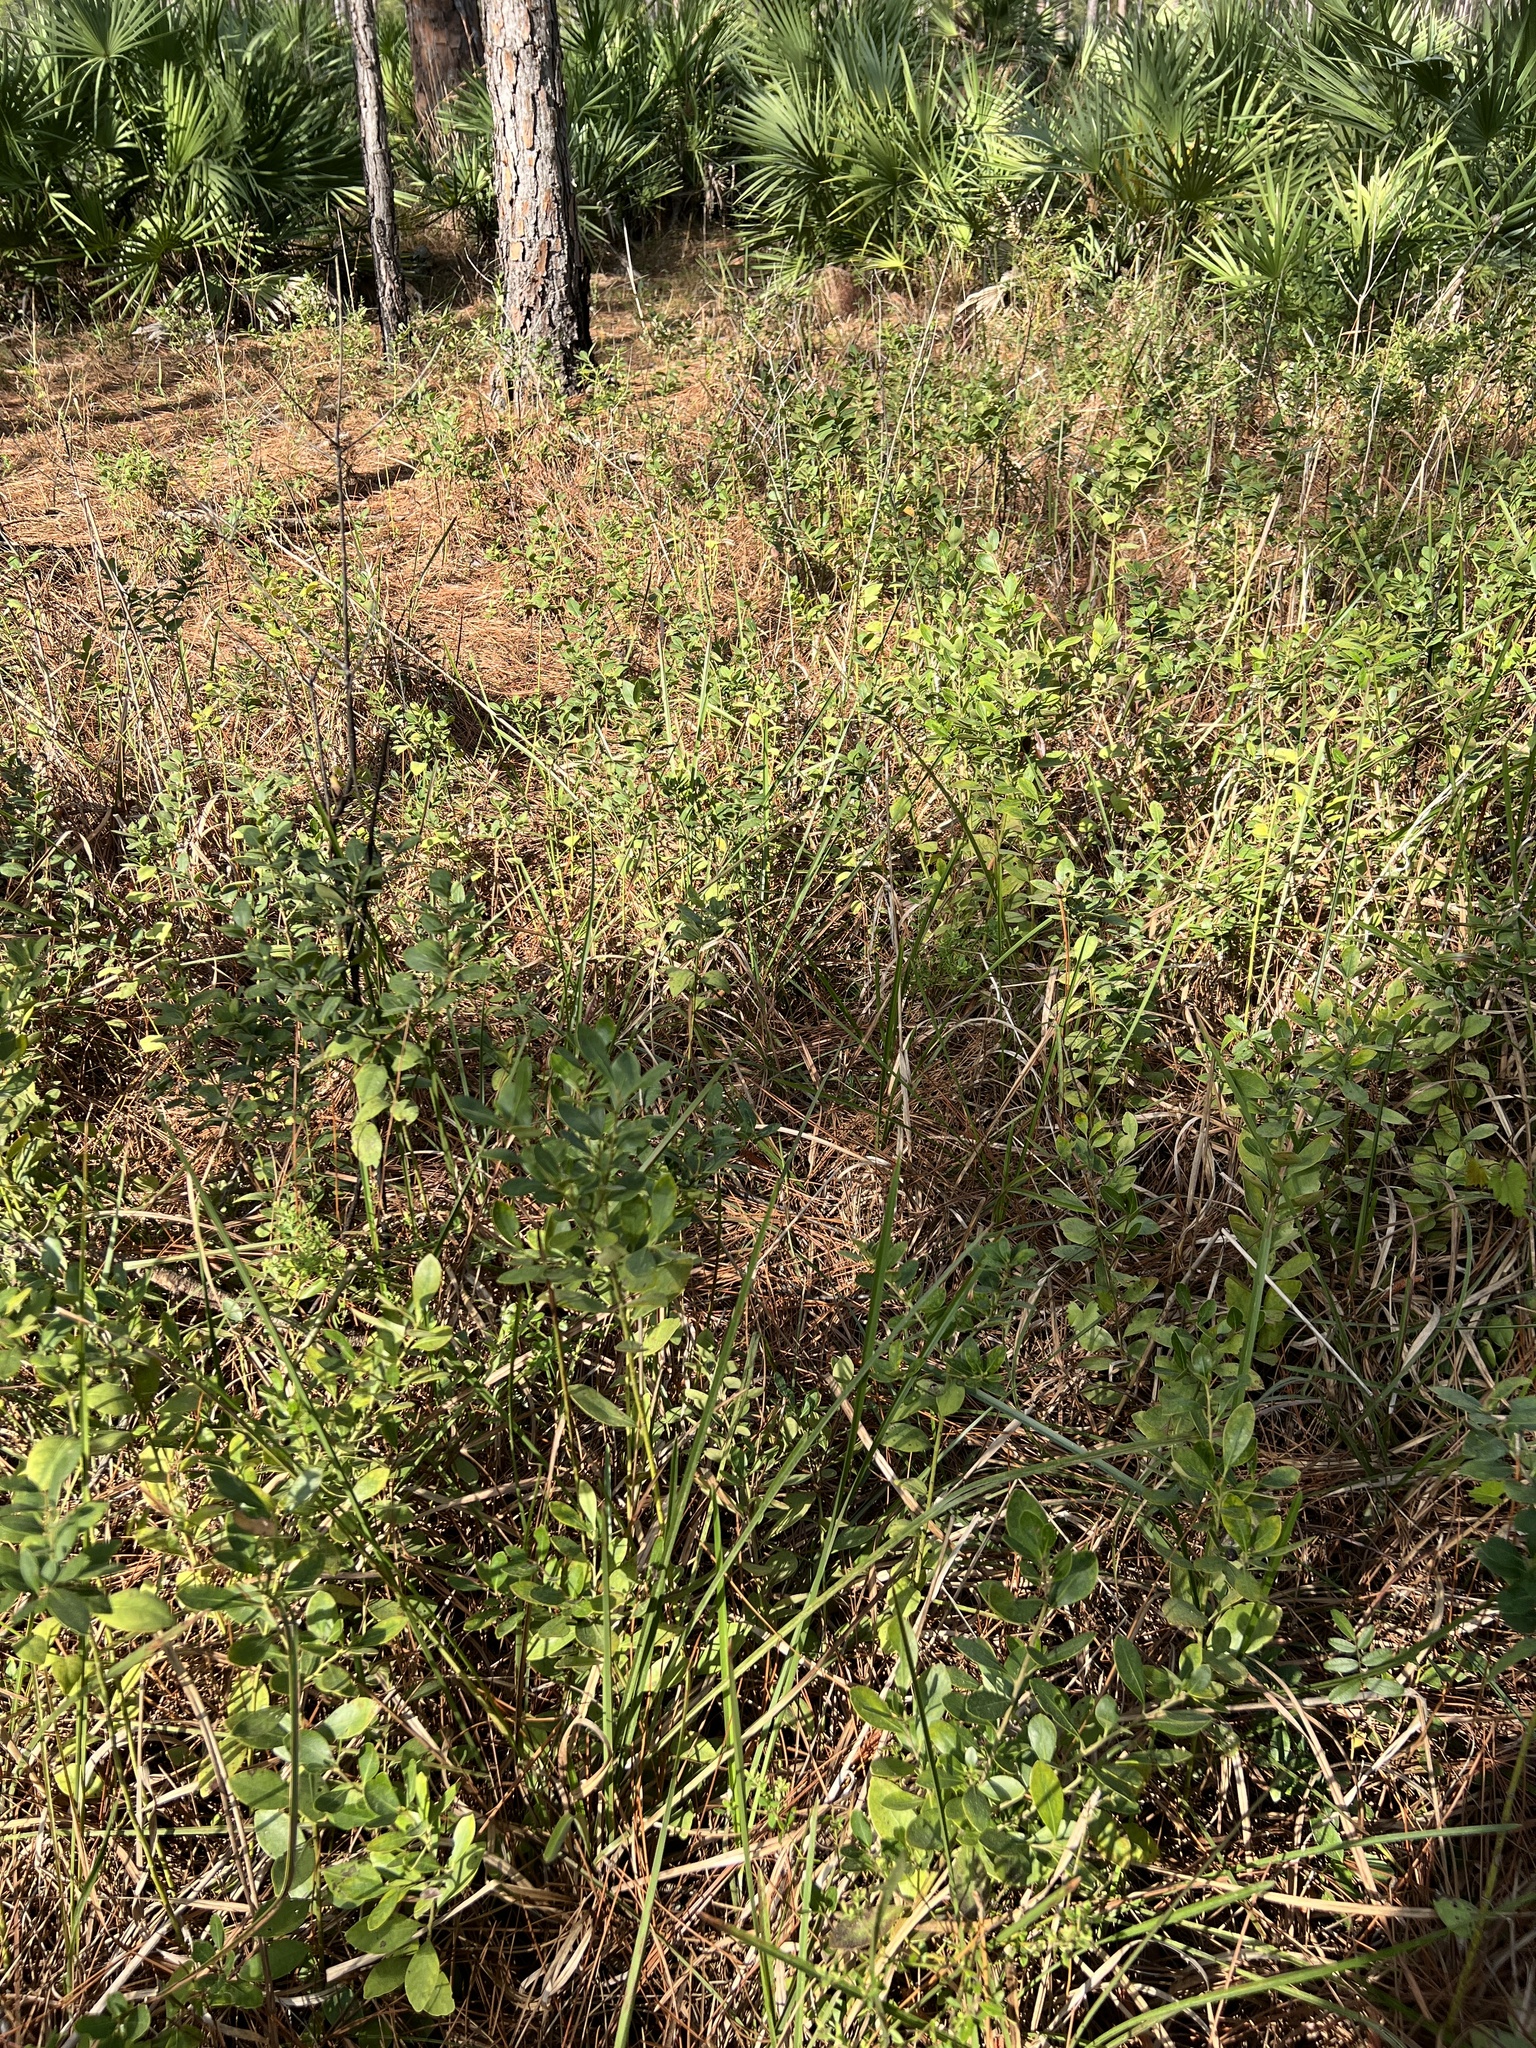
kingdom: Plantae
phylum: Tracheophyta
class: Magnoliopsida
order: Aquifoliales
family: Aquifoliaceae
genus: Ilex
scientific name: Ilex glabra
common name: Bitter gallberry
